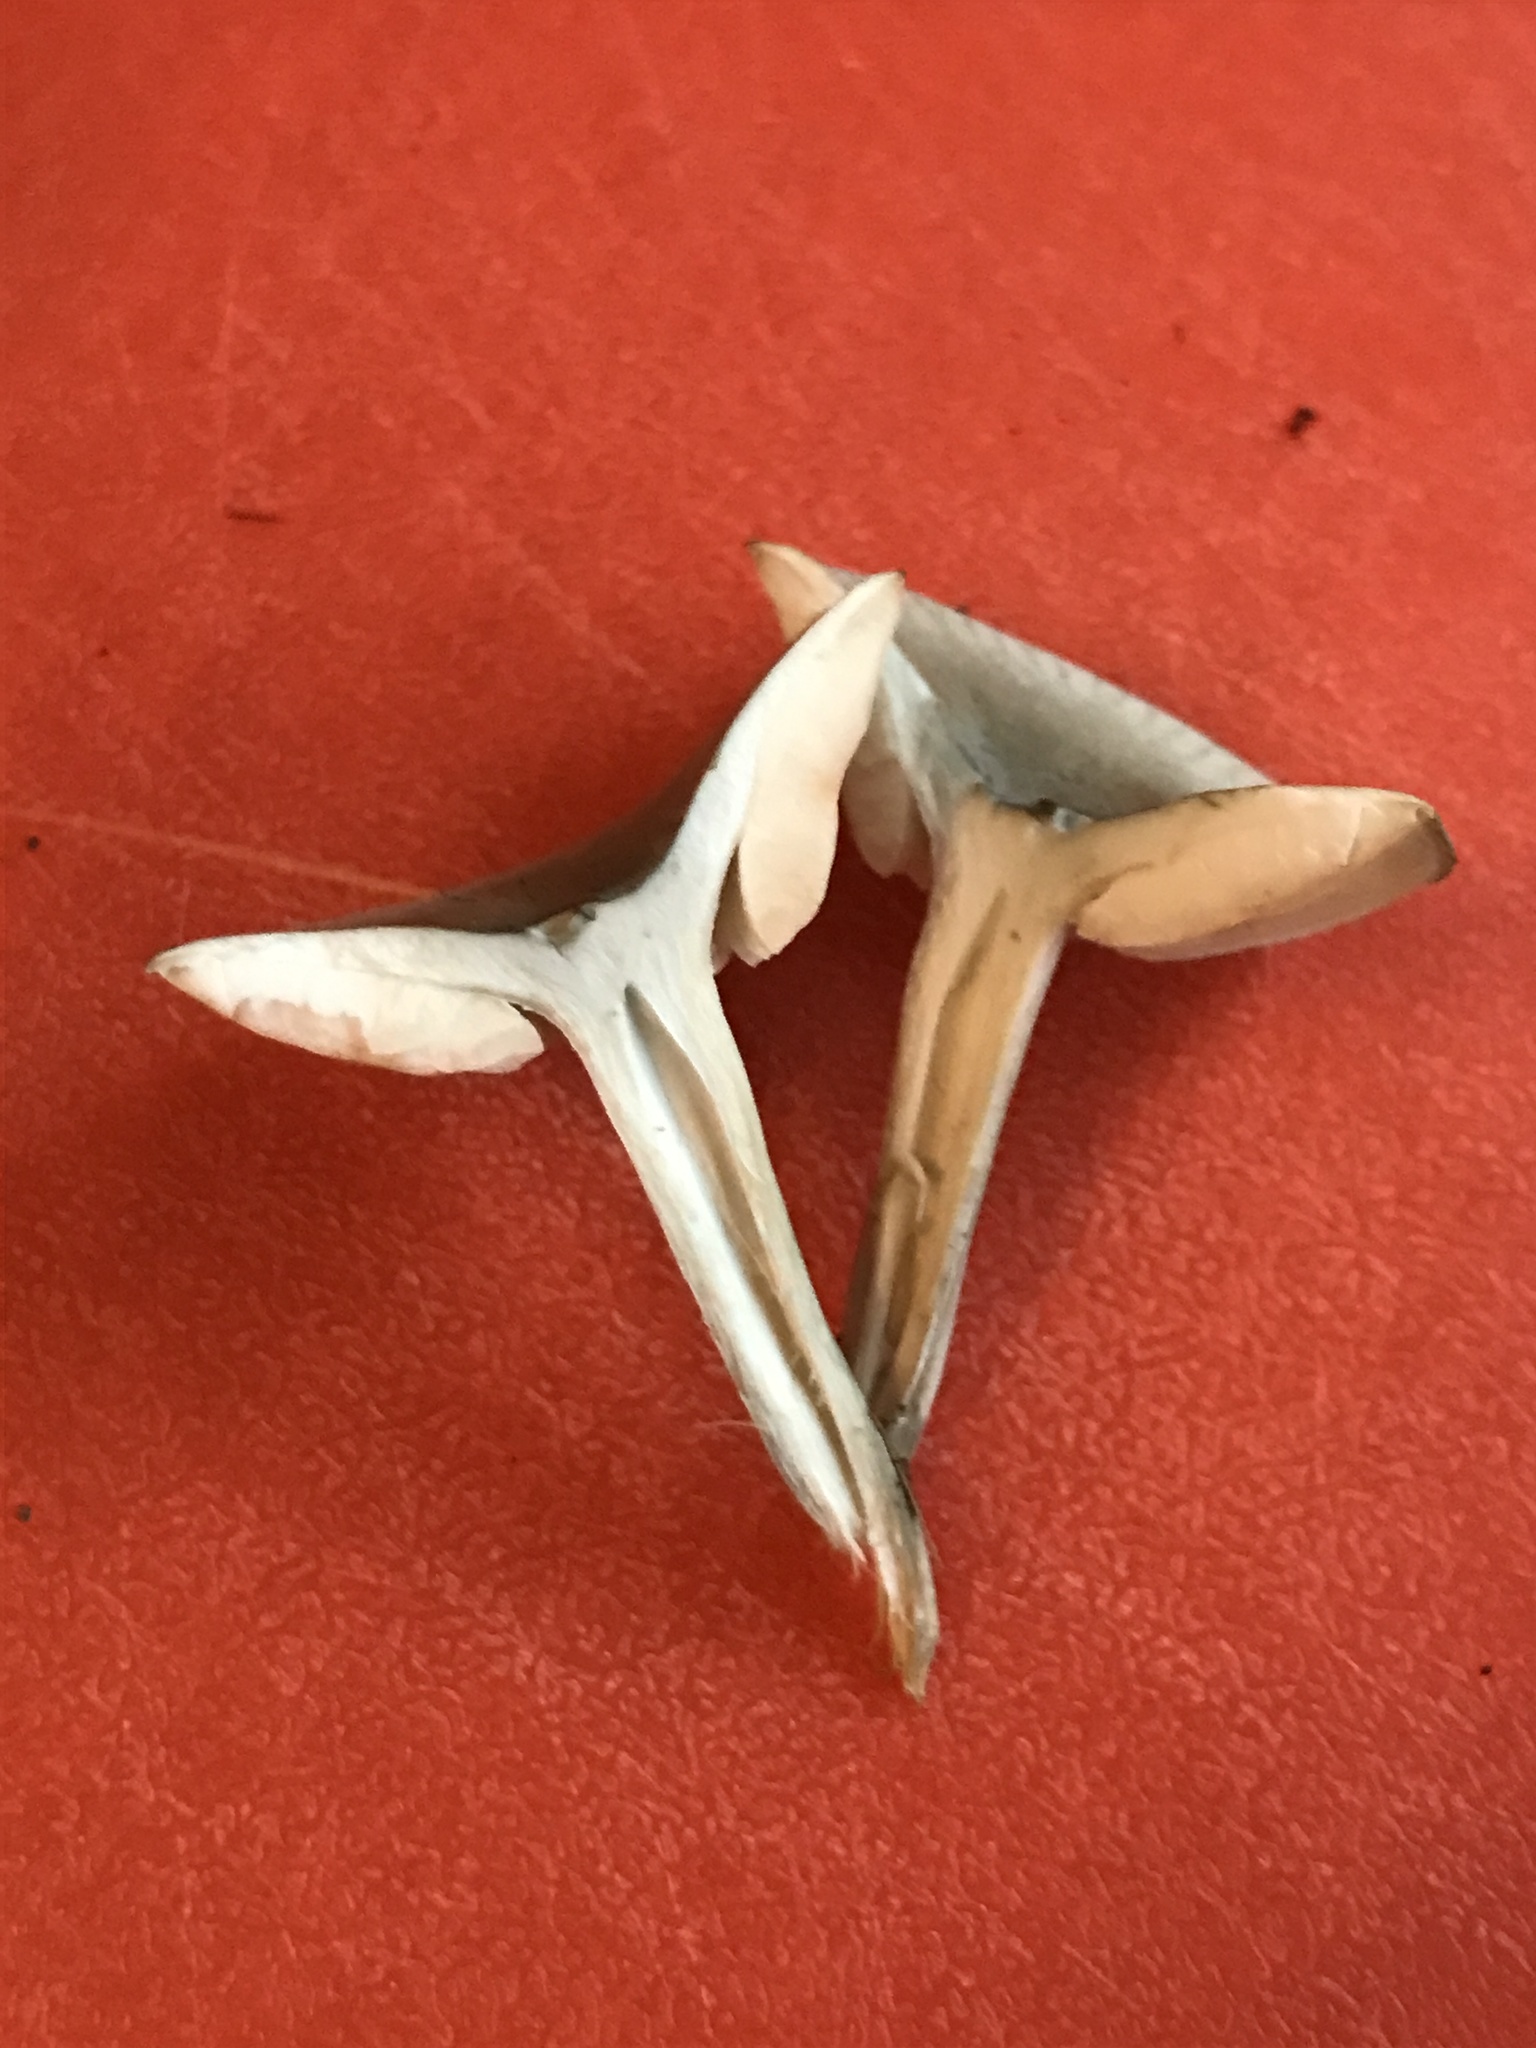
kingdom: Fungi
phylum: Basidiomycota
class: Agaricomycetes
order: Agaricales
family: Tricholomataceae
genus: Collybia
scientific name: Collybia
